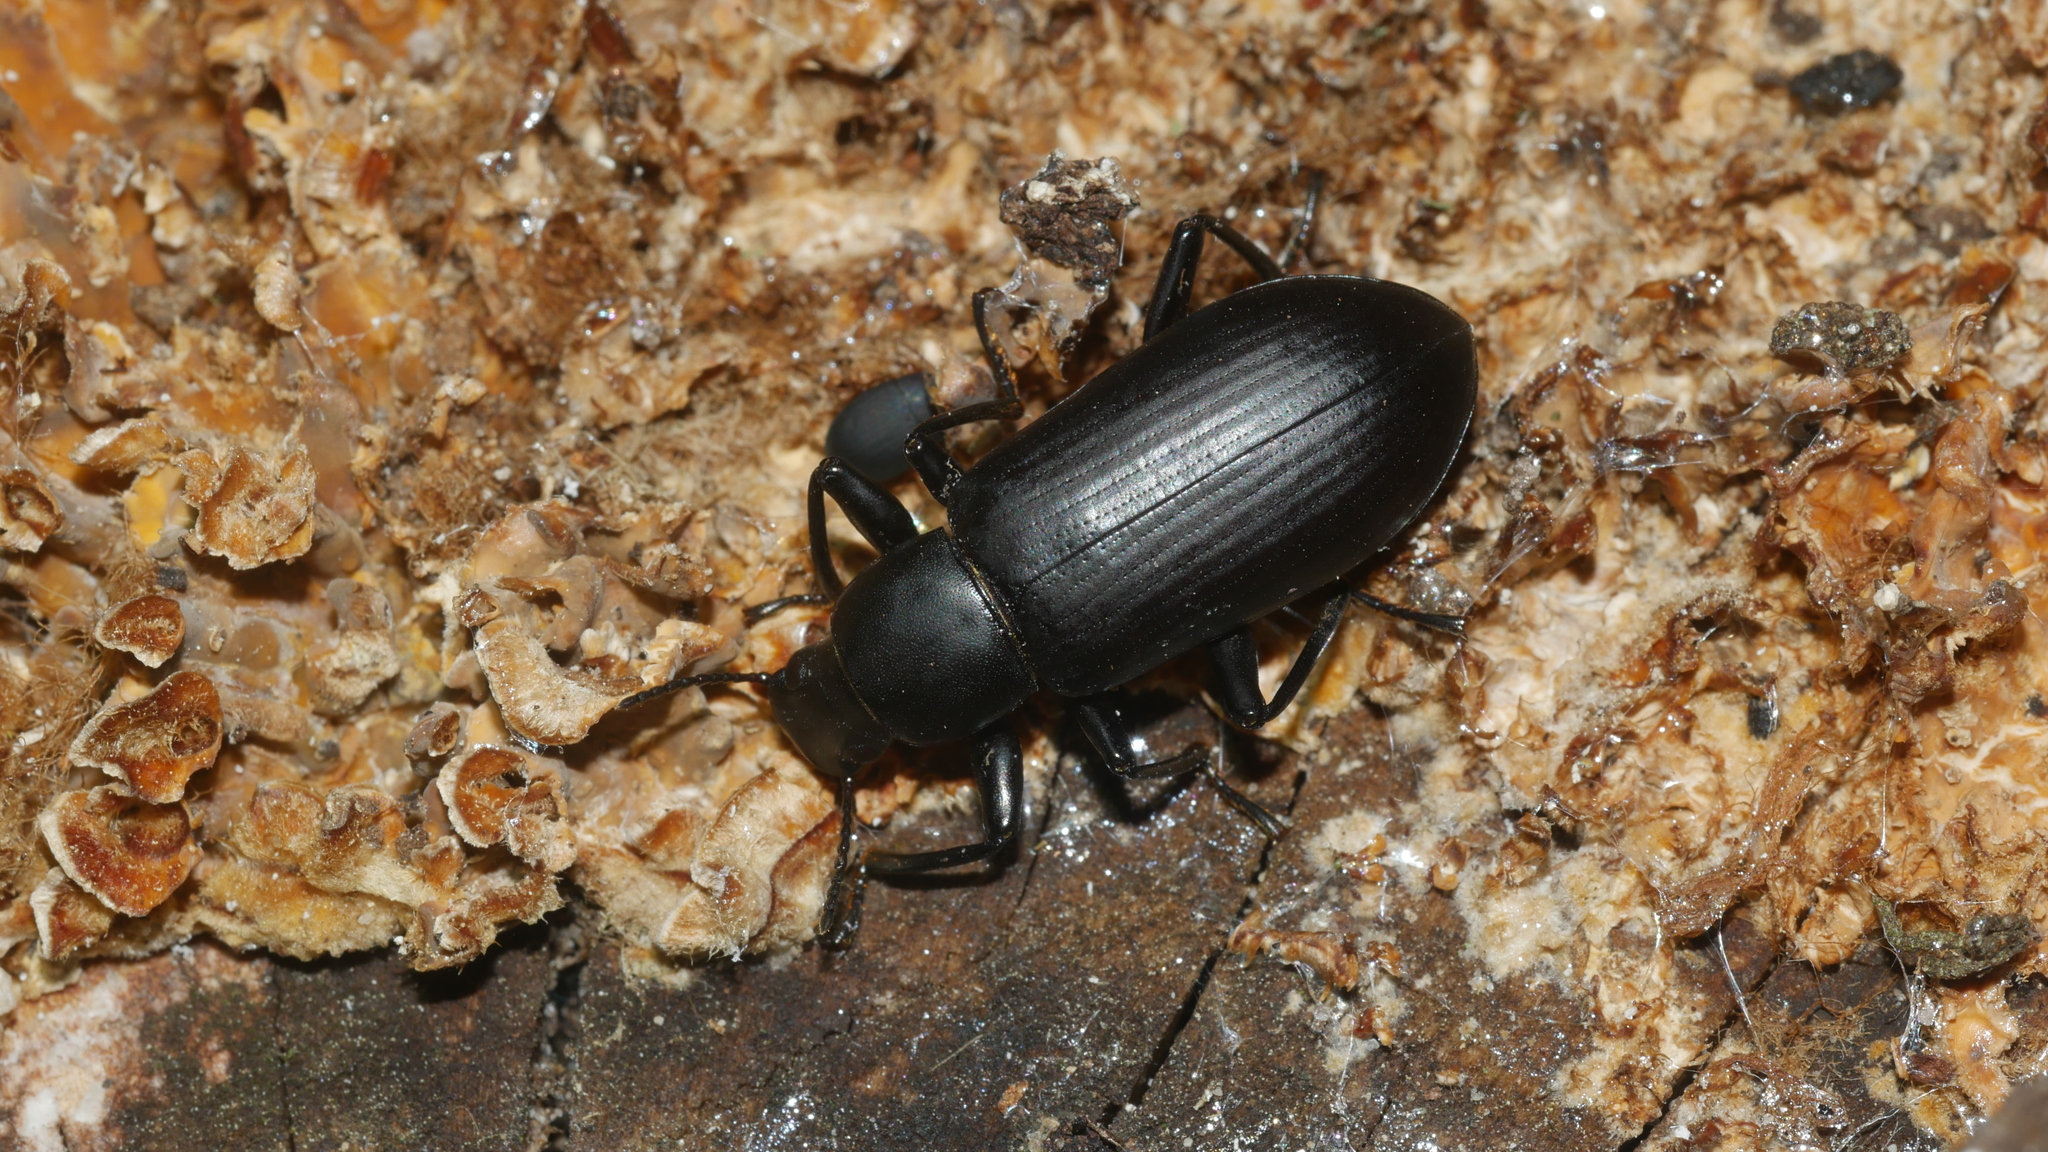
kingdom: Animalia
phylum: Arthropoda
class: Insecta
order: Coleoptera
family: Tenebrionidae
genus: Alobates
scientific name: Alobates
